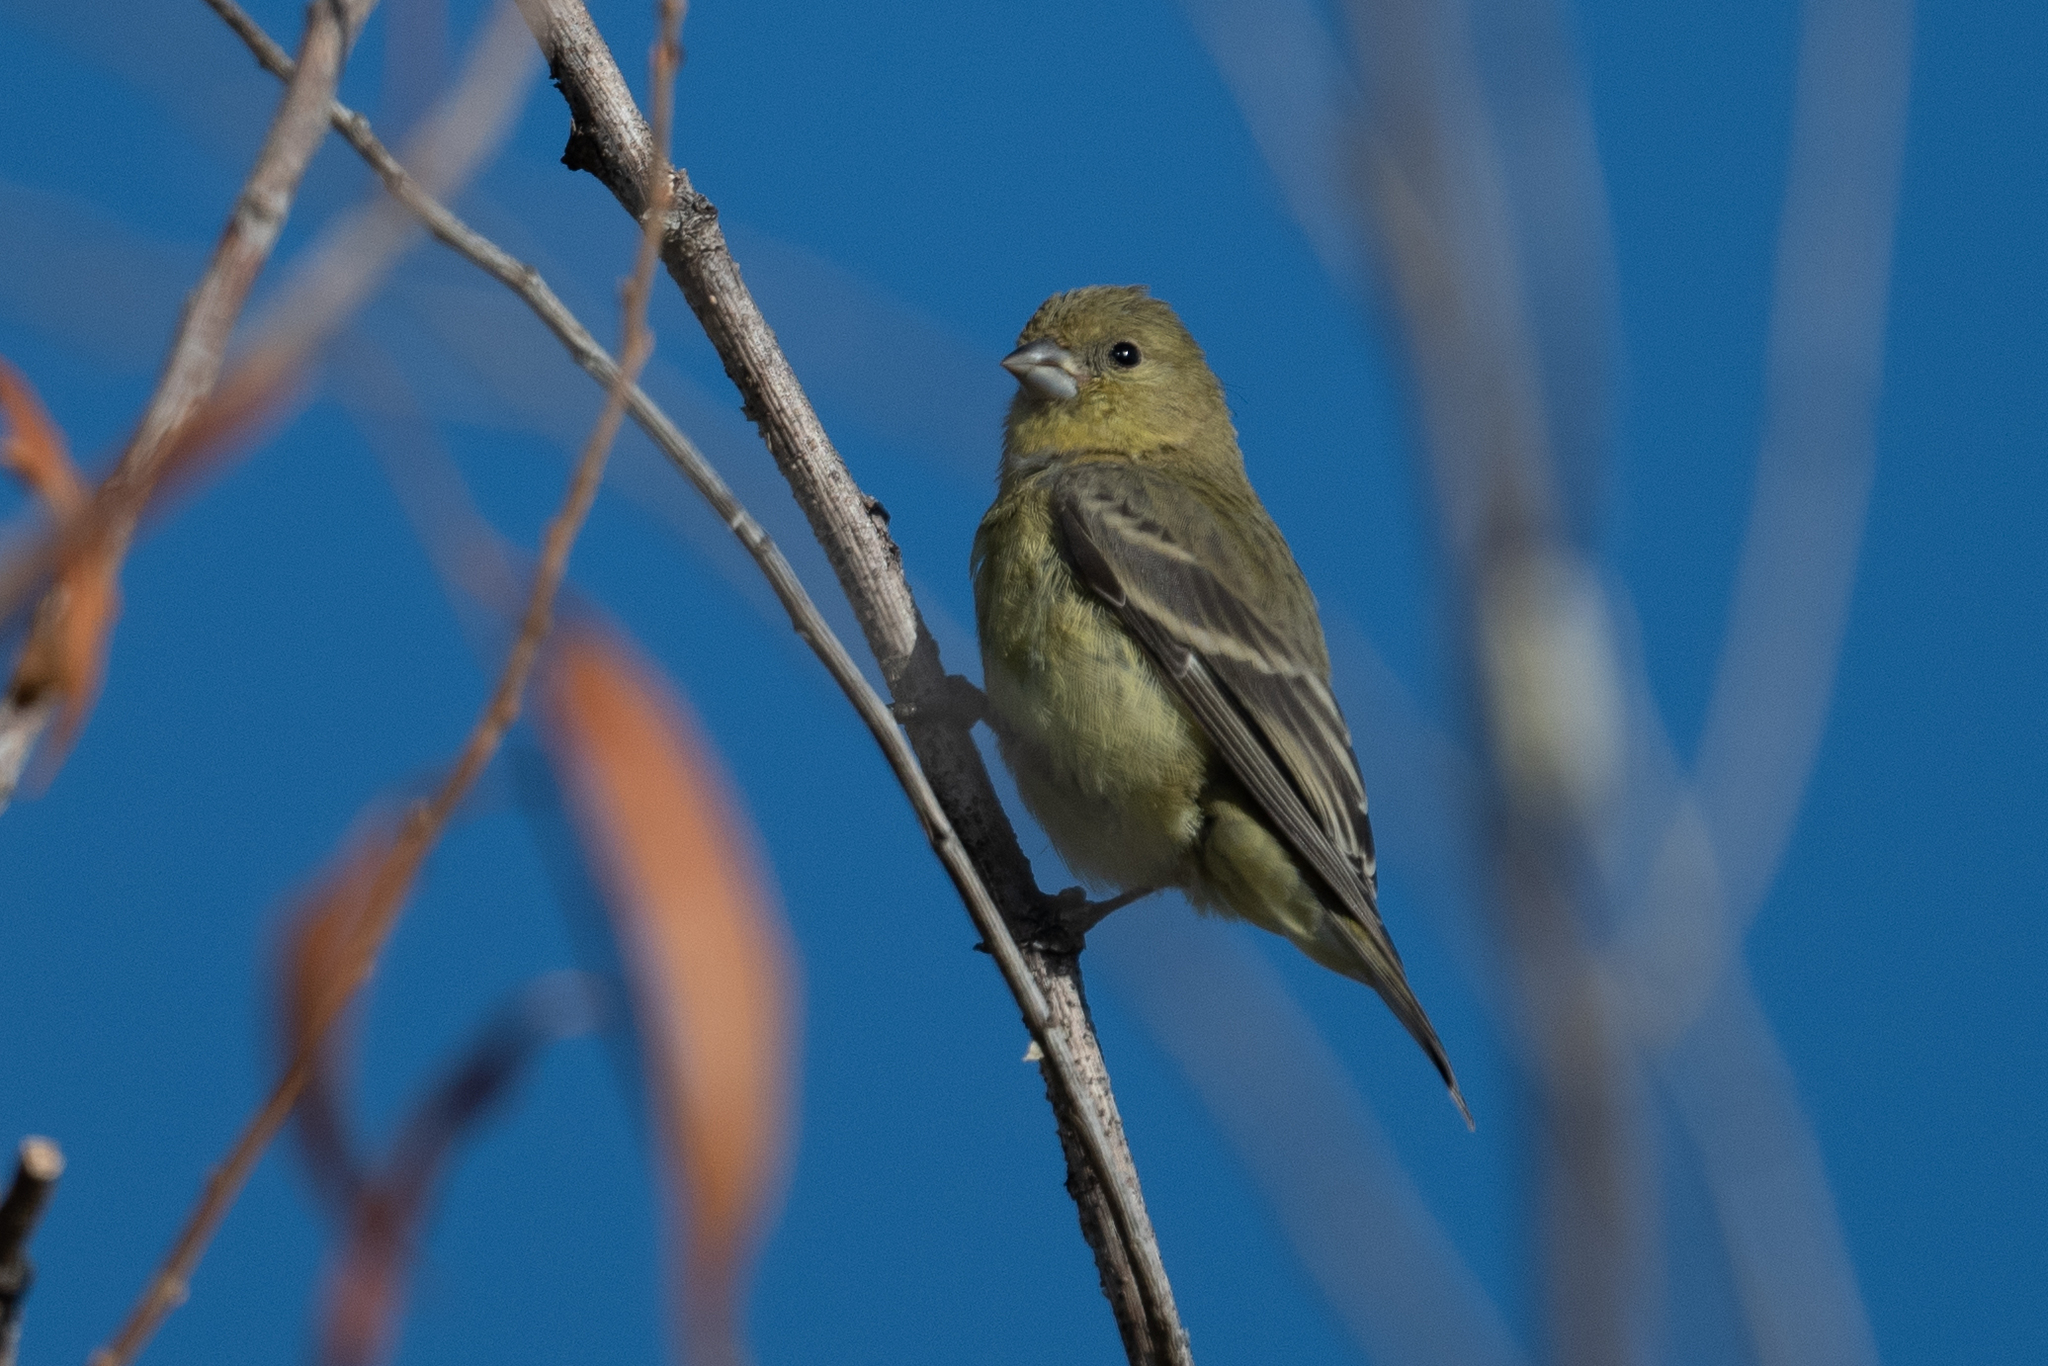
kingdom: Animalia
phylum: Chordata
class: Aves
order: Passeriformes
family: Fringillidae
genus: Spinus
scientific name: Spinus psaltria
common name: Lesser goldfinch
